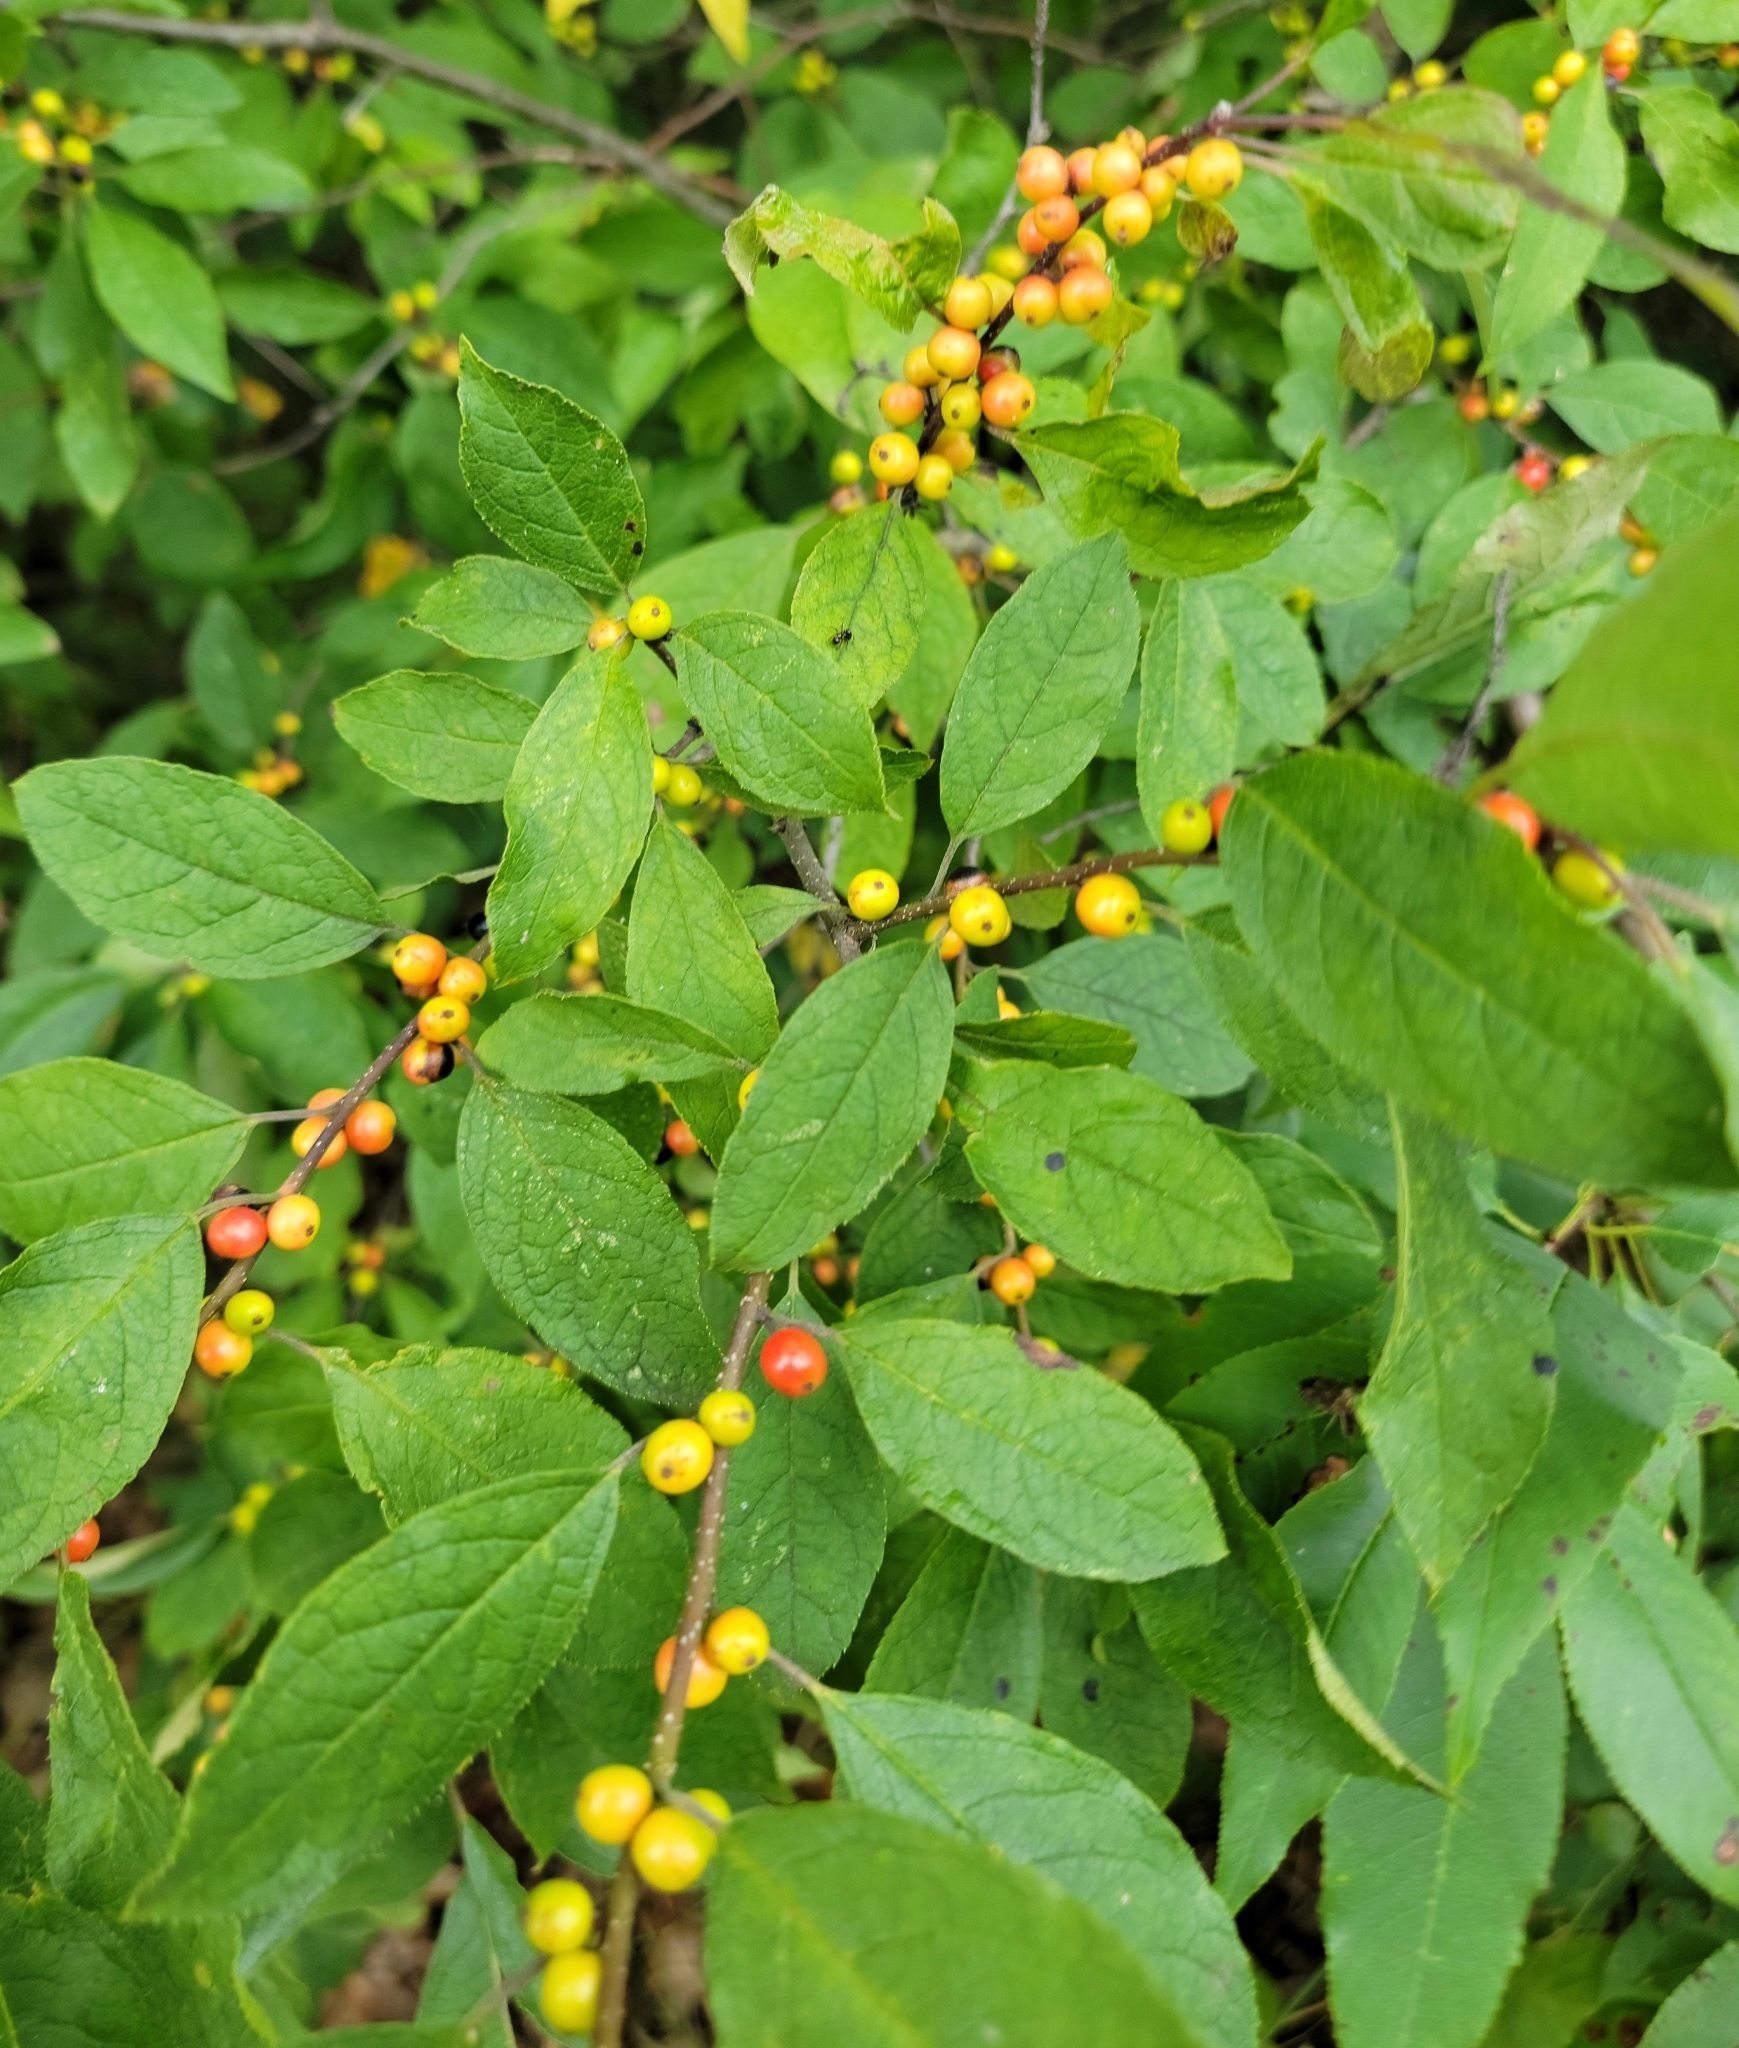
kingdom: Plantae
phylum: Tracheophyta
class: Magnoliopsida
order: Aquifoliales
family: Aquifoliaceae
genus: Ilex
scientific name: Ilex verticillata
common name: Virginia winterberry
